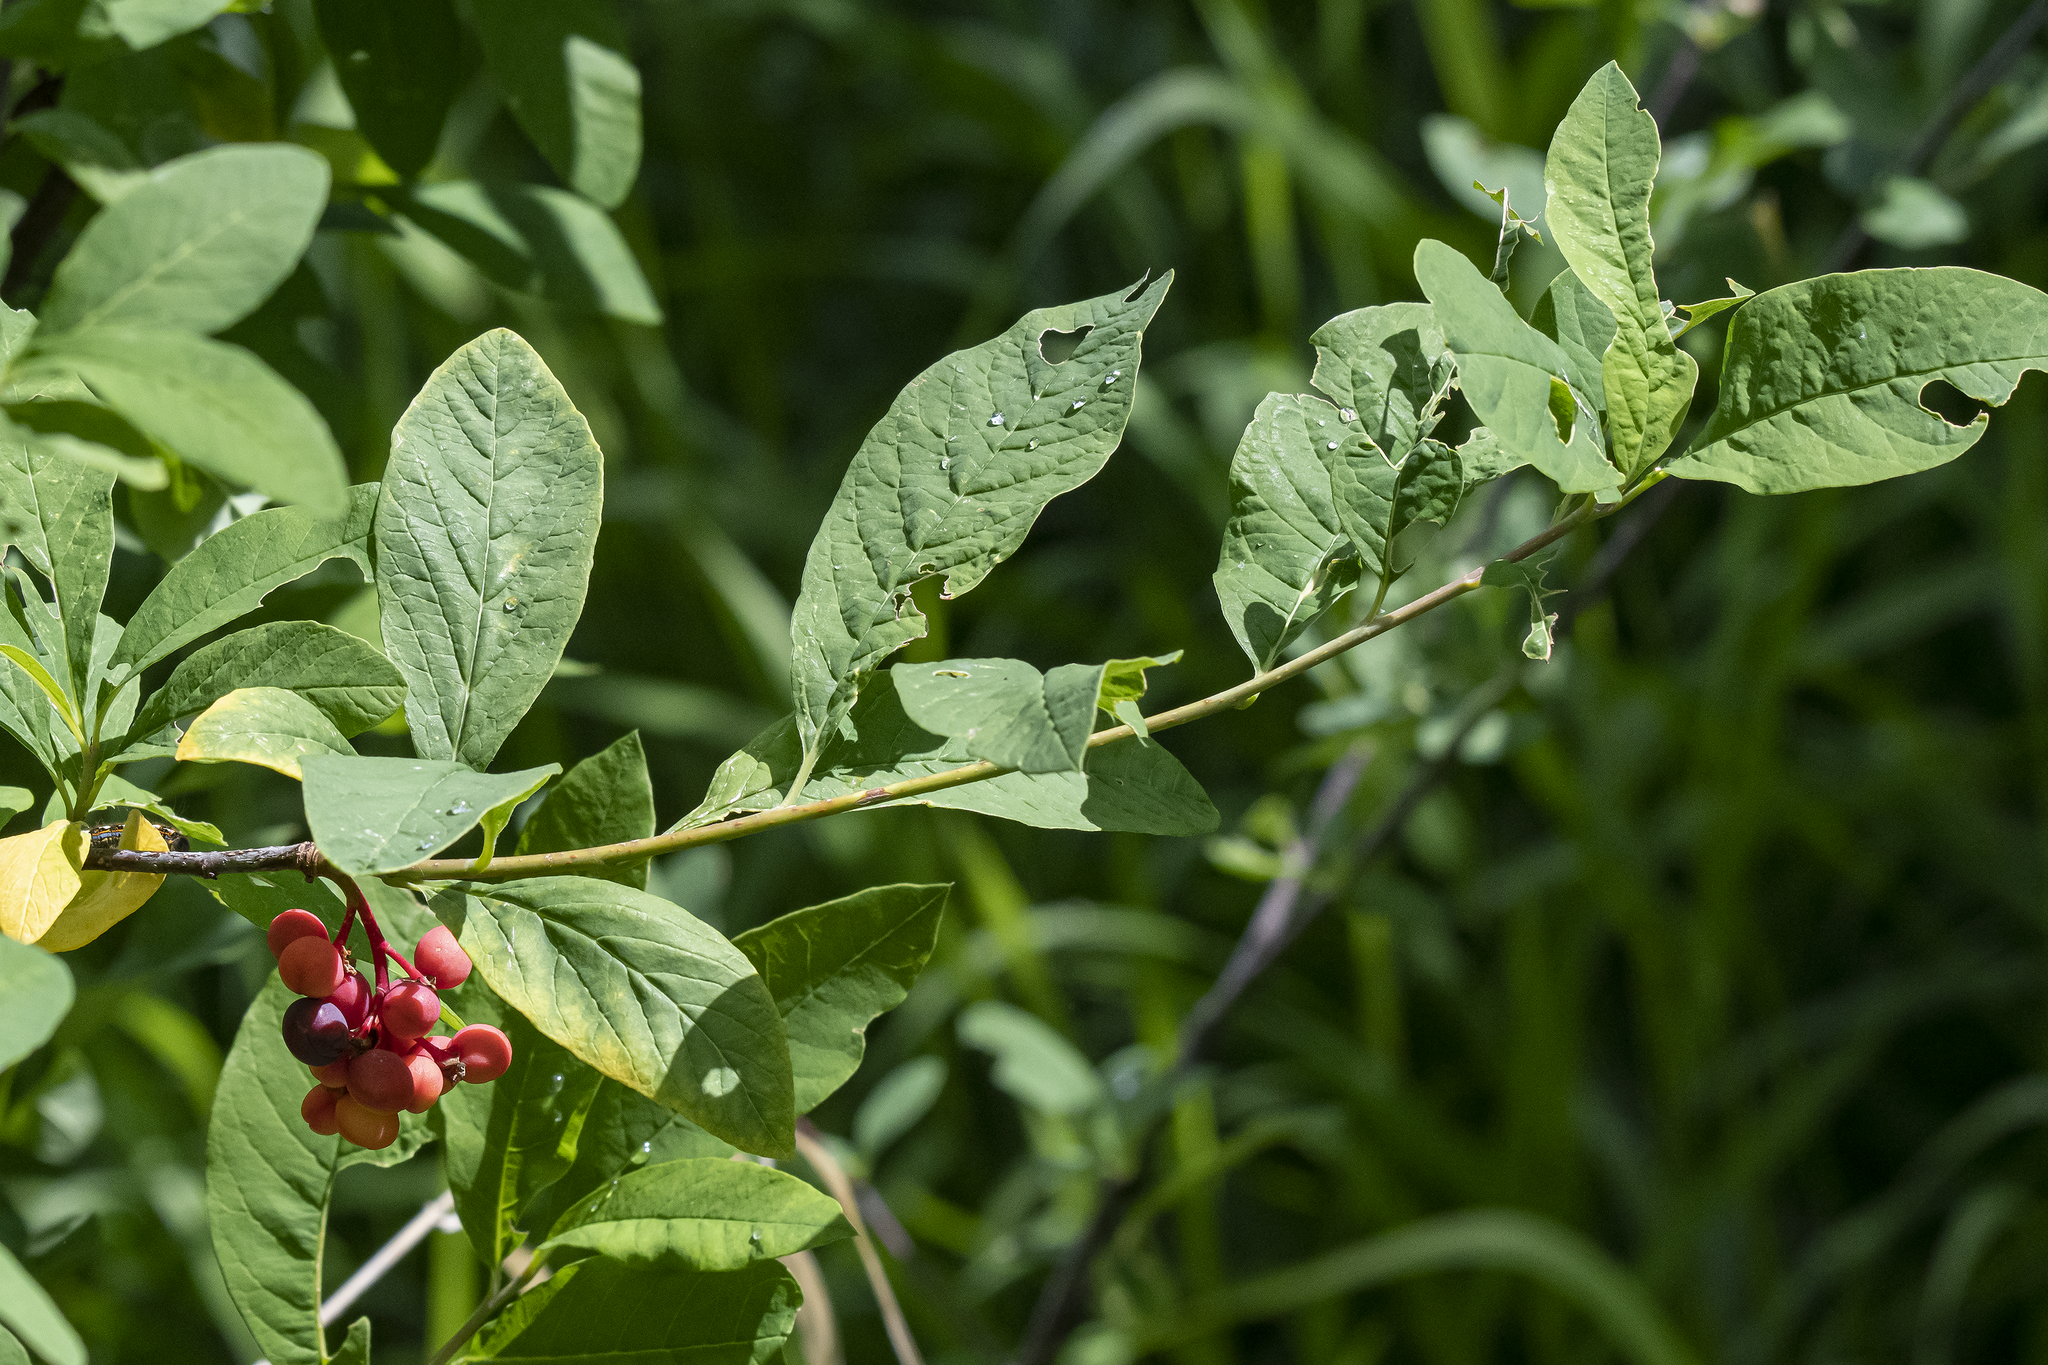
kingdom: Plantae
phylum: Tracheophyta
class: Magnoliopsida
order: Rosales
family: Rosaceae
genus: Oemleria
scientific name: Oemleria cerasiformis
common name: Osoberry
